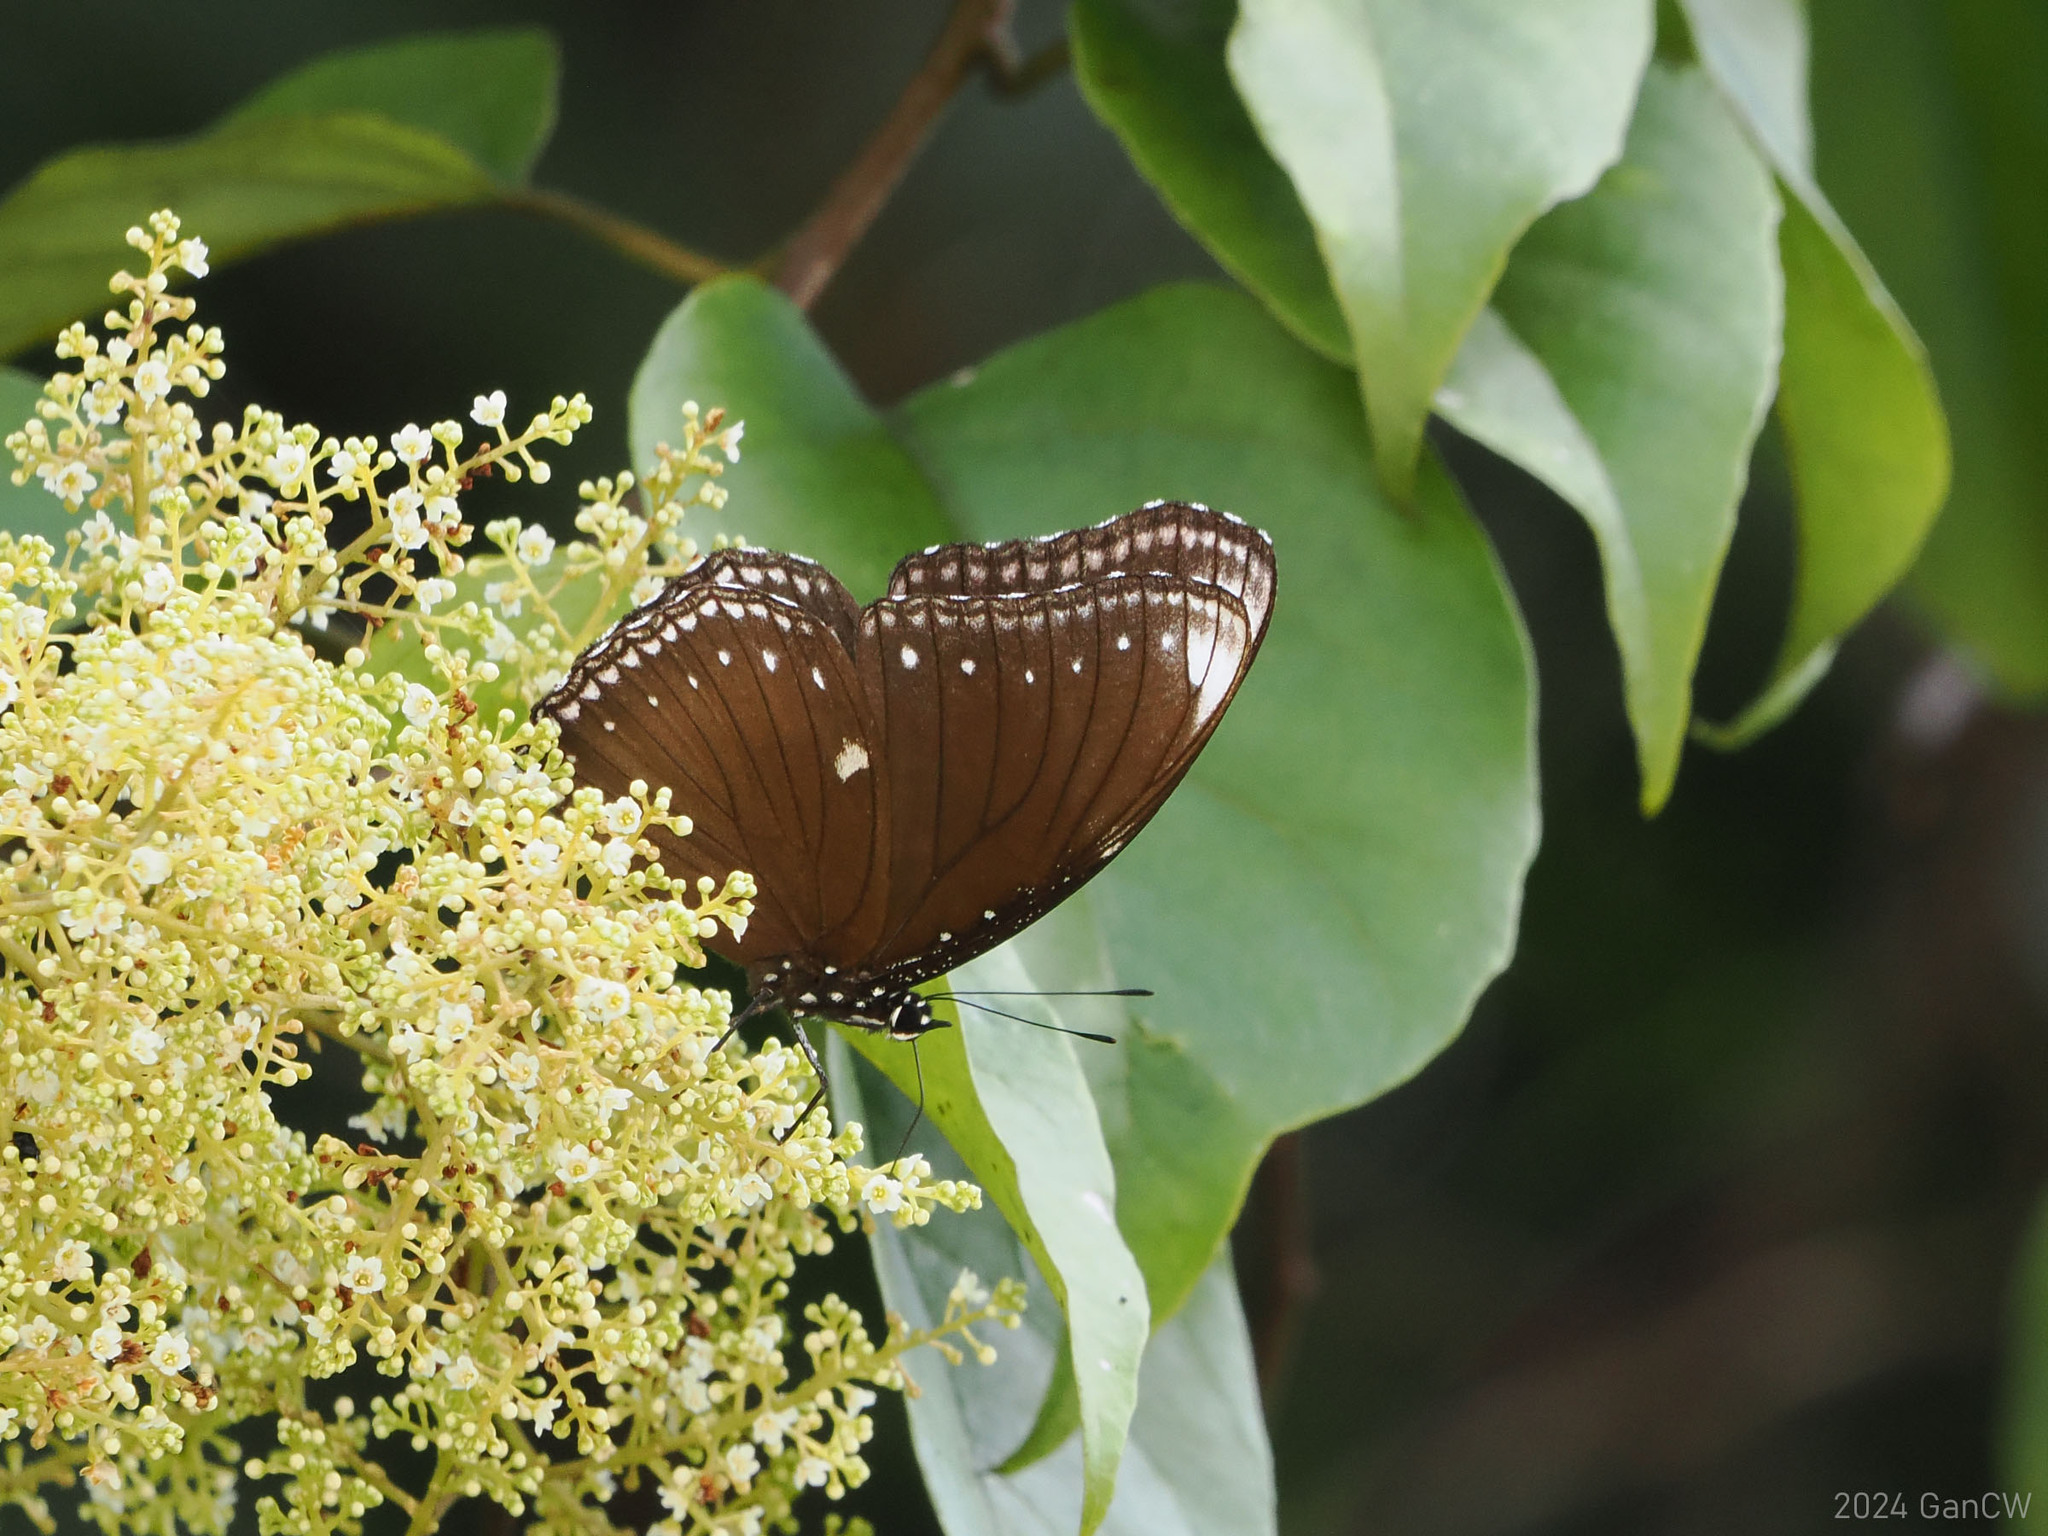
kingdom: Animalia
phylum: Arthropoda
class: Insecta
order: Lepidoptera
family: Nymphalidae
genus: Hypolimnas
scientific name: Hypolimnas anomala
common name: Malayan eggfly
